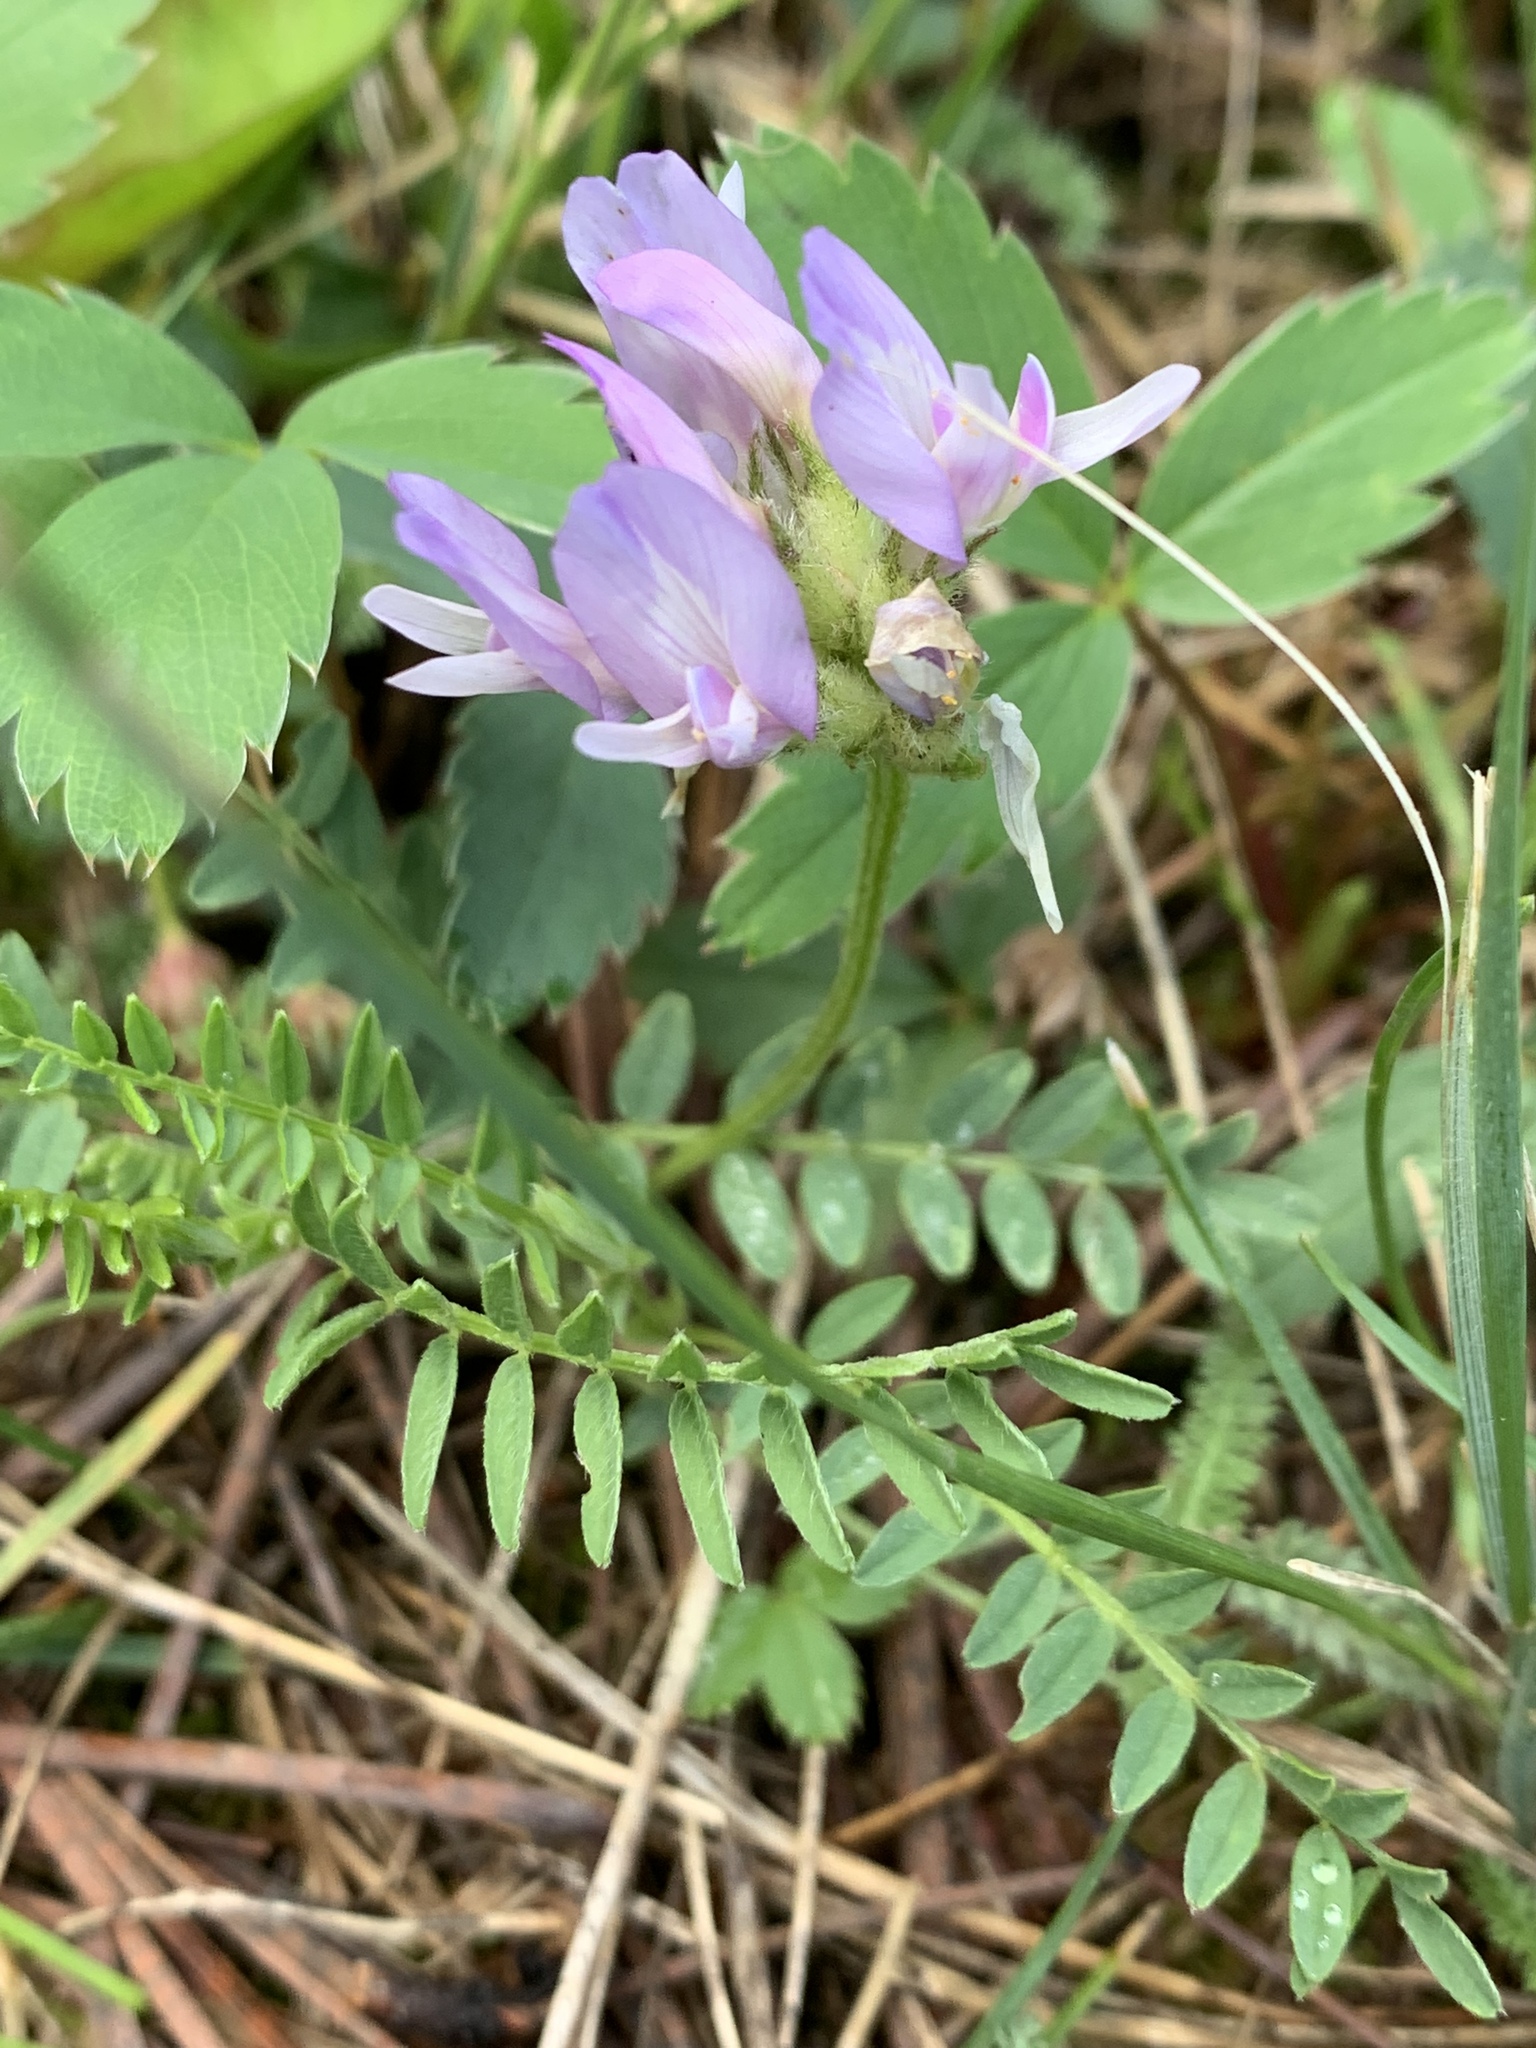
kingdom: Plantae
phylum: Tracheophyta
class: Magnoliopsida
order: Fabales
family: Fabaceae
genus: Astragalus
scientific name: Astragalus agrestis
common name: Field milk-vetch
